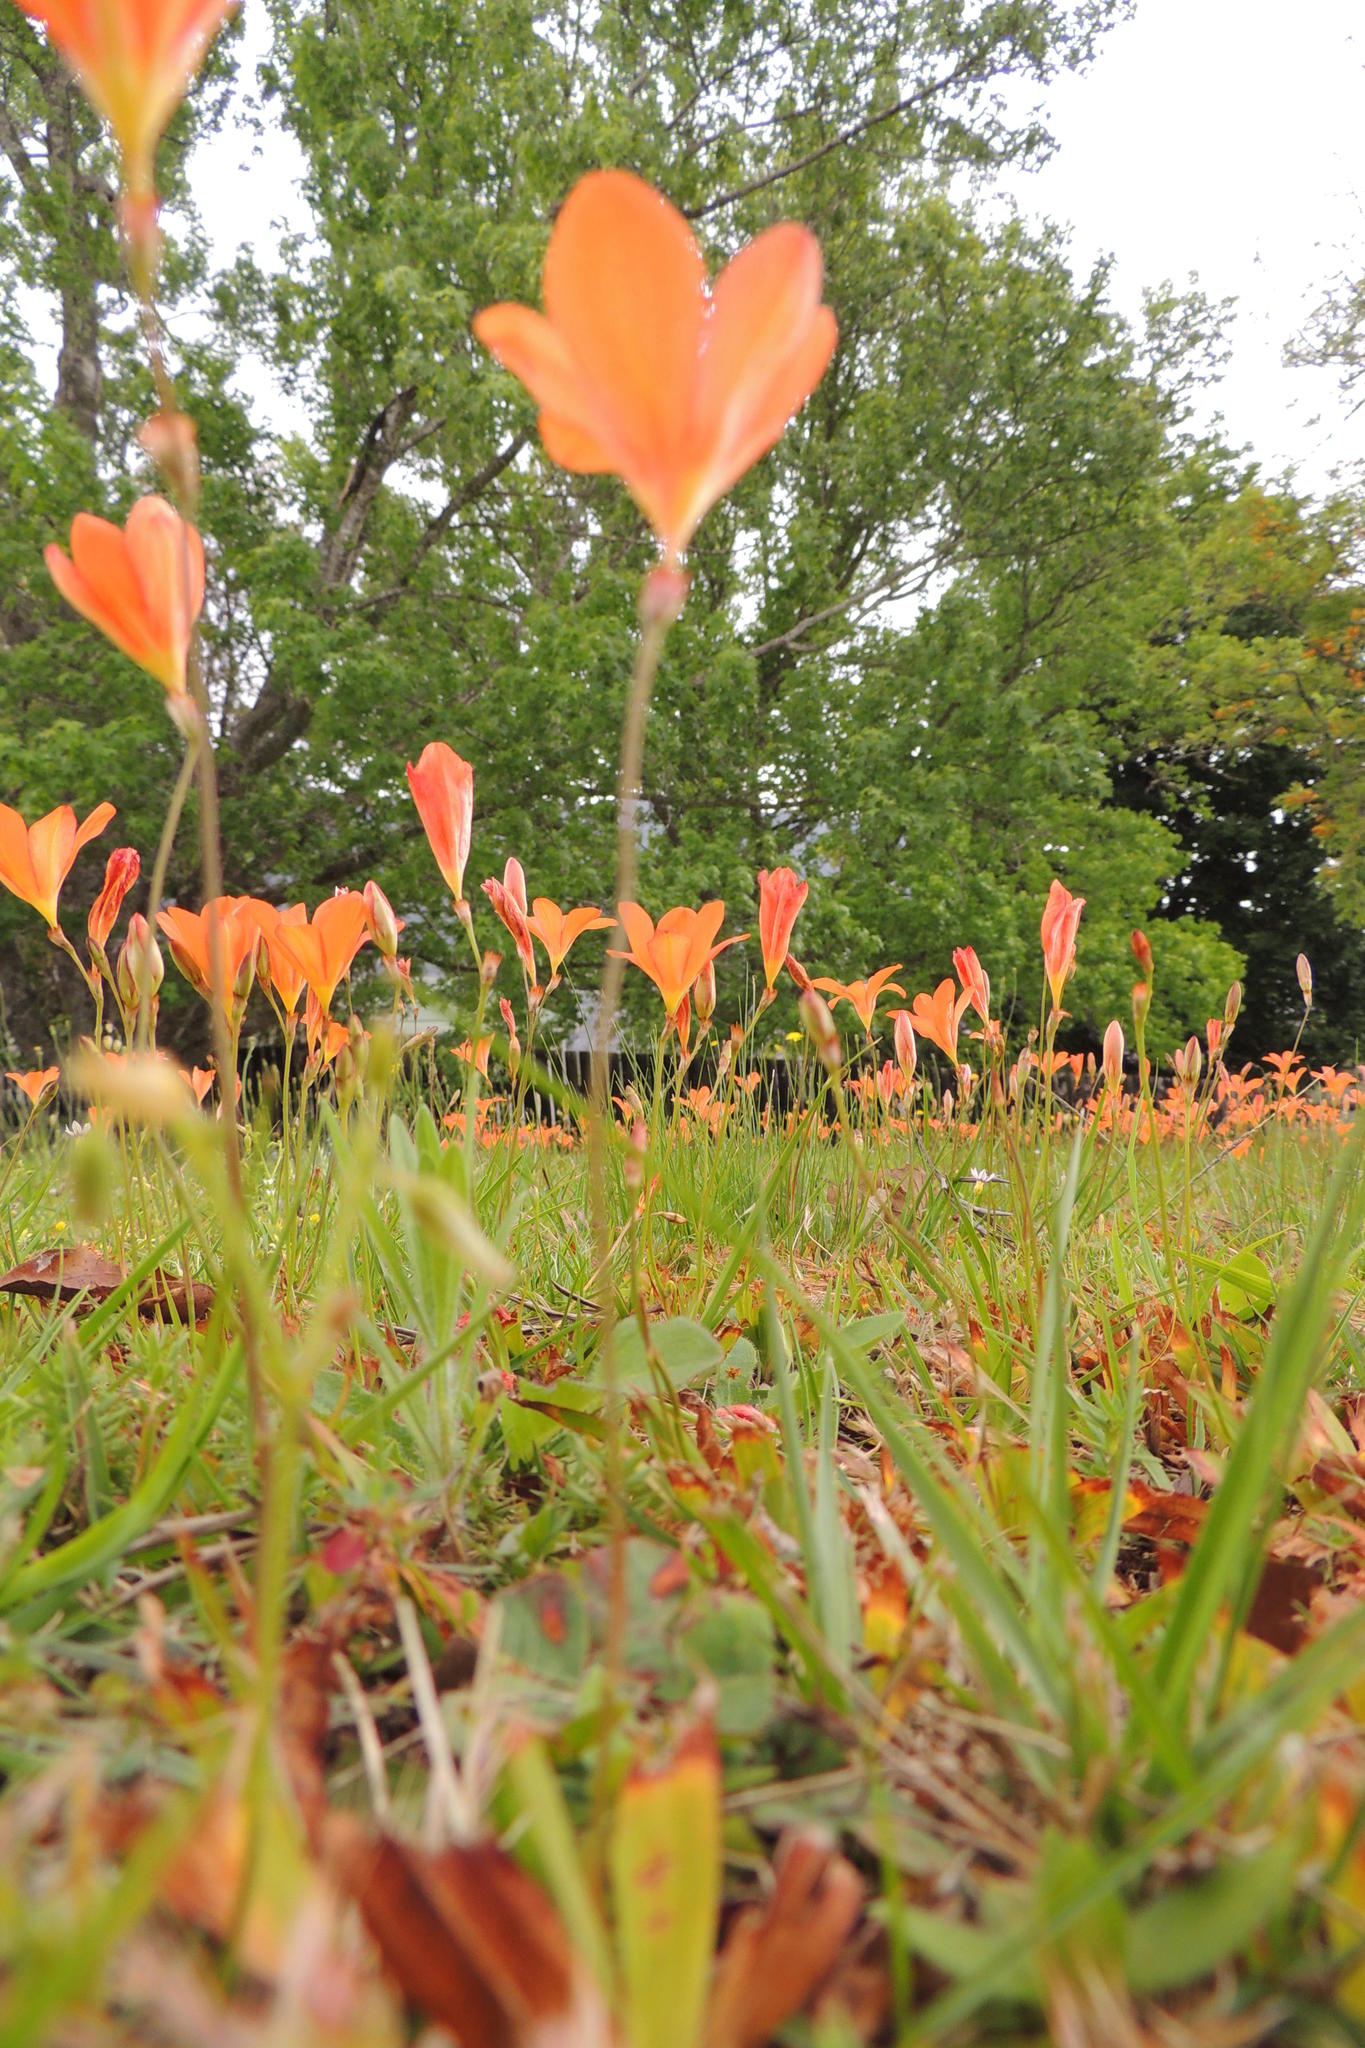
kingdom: Plantae
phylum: Tracheophyta
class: Liliopsida
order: Asparagales
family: Iridaceae
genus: Tritonia
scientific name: Tritonia deusta
